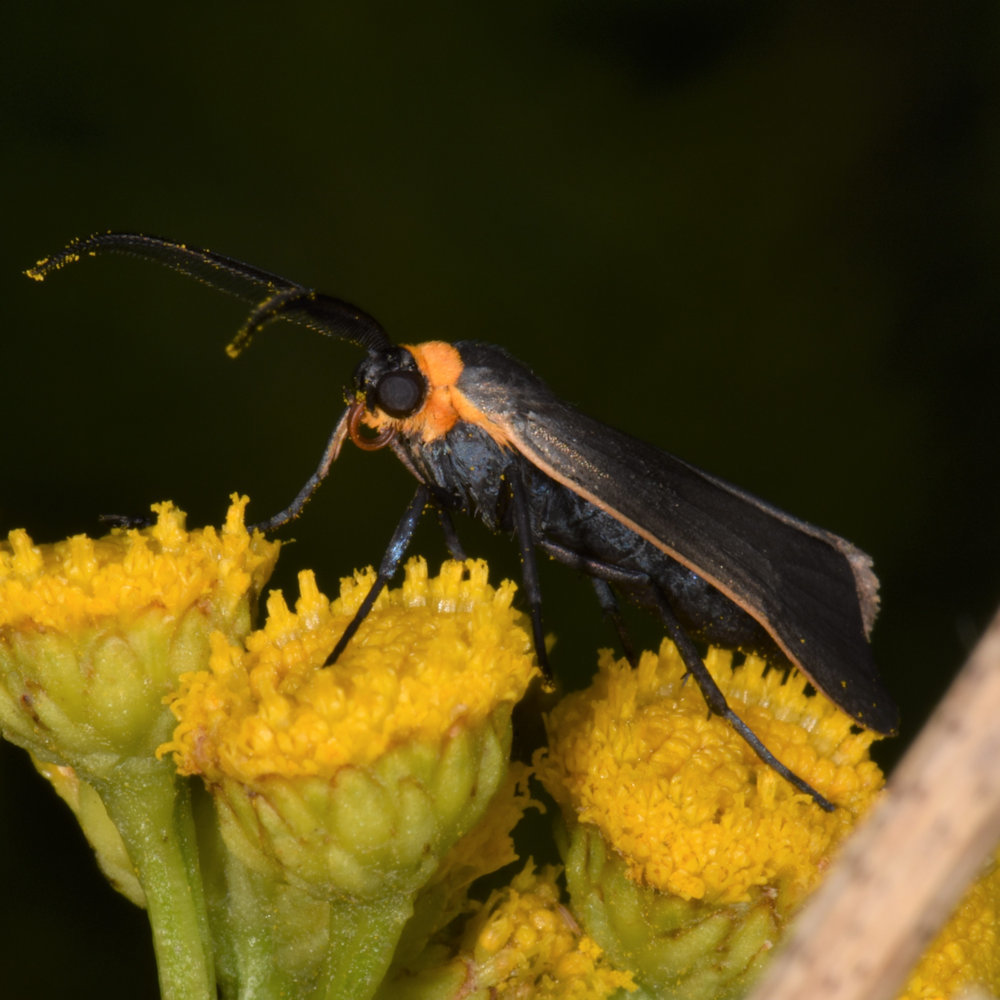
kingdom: Animalia
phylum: Arthropoda
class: Insecta
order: Lepidoptera
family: Erebidae
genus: Cisseps
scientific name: Cisseps fulvicollis
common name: Yellow-collared scape moth
